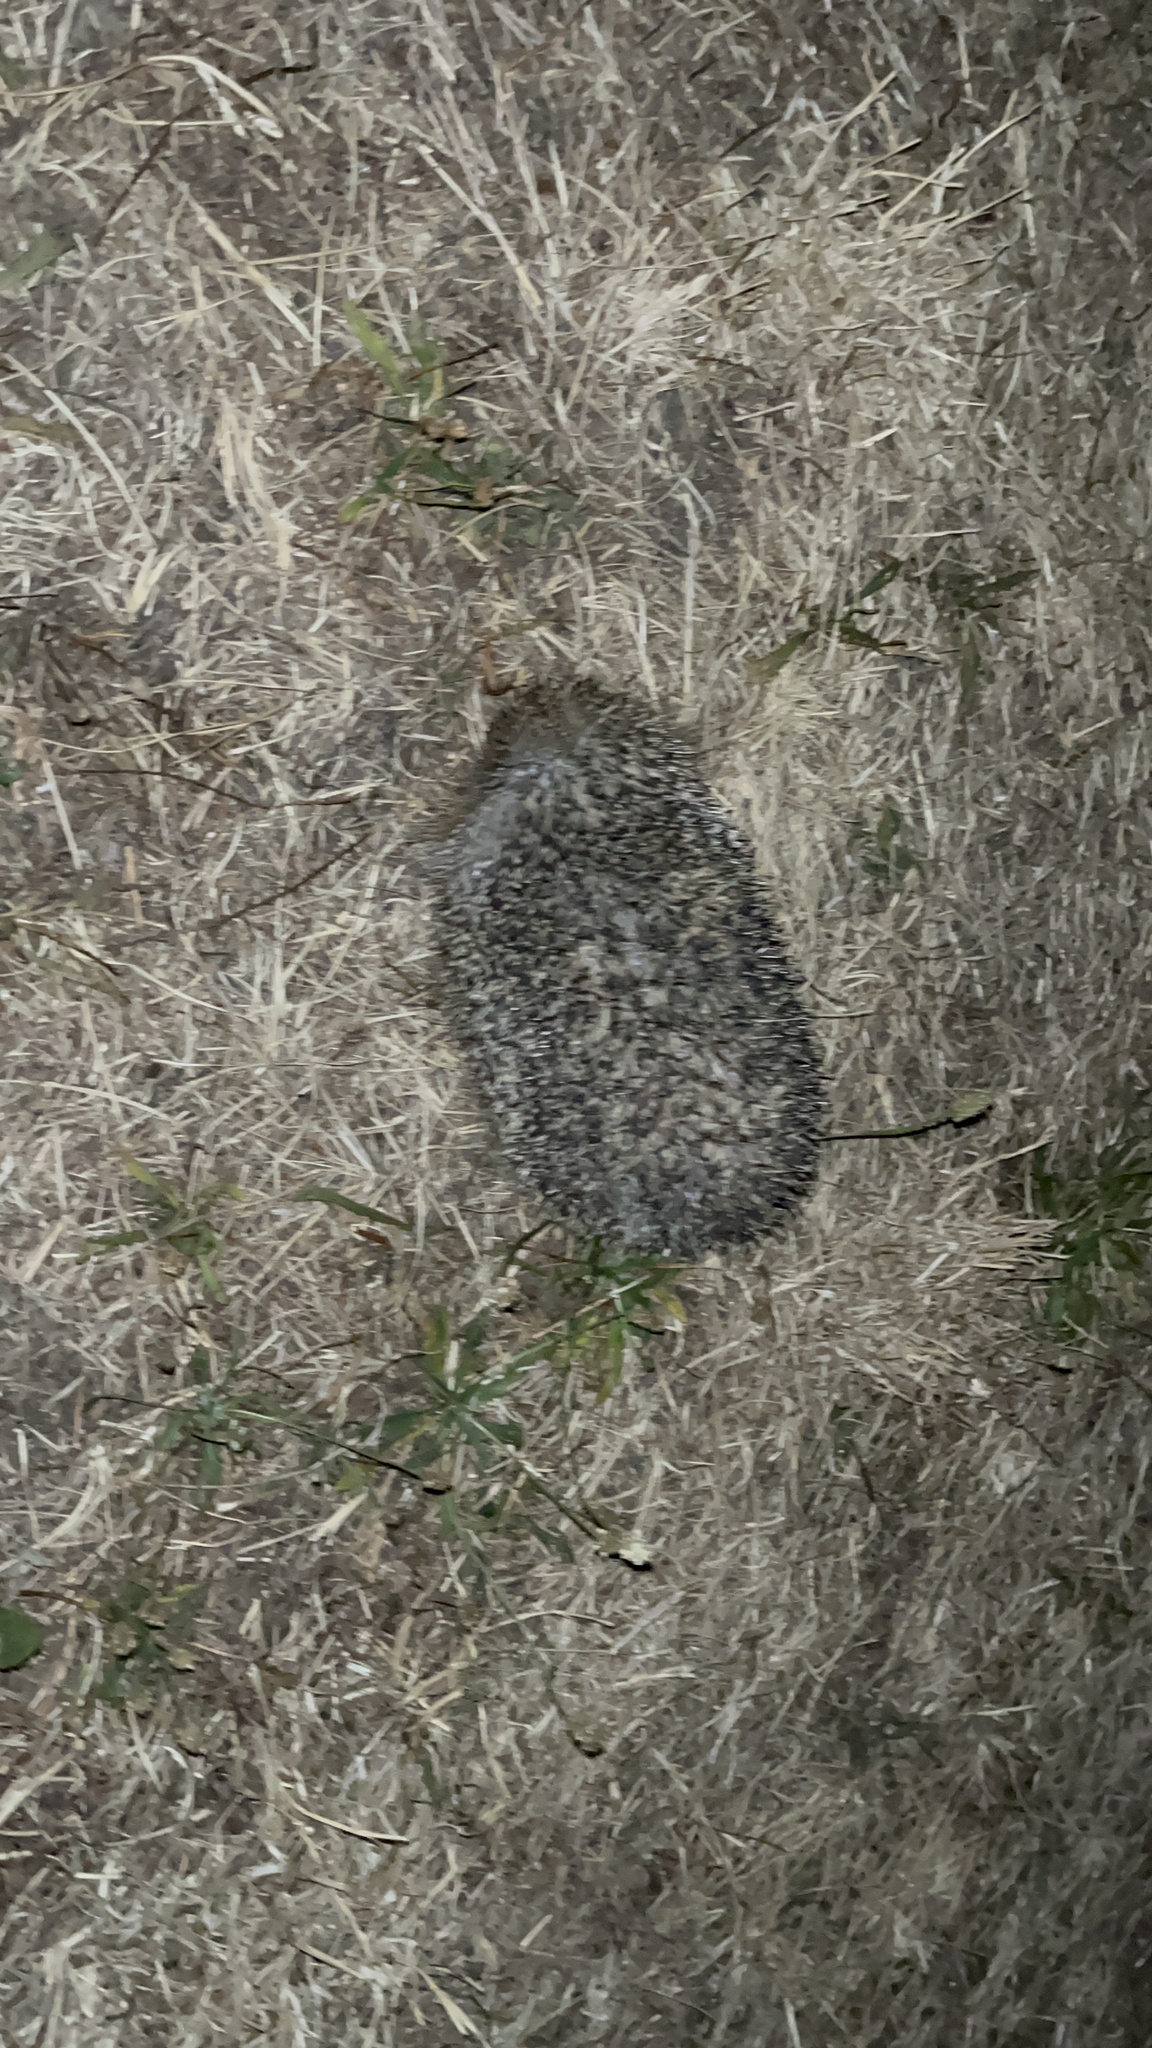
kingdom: Animalia
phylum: Chordata
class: Mammalia
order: Erinaceomorpha
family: Erinaceidae
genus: Erinaceus
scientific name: Erinaceus europaeus
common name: West european hedgehog
